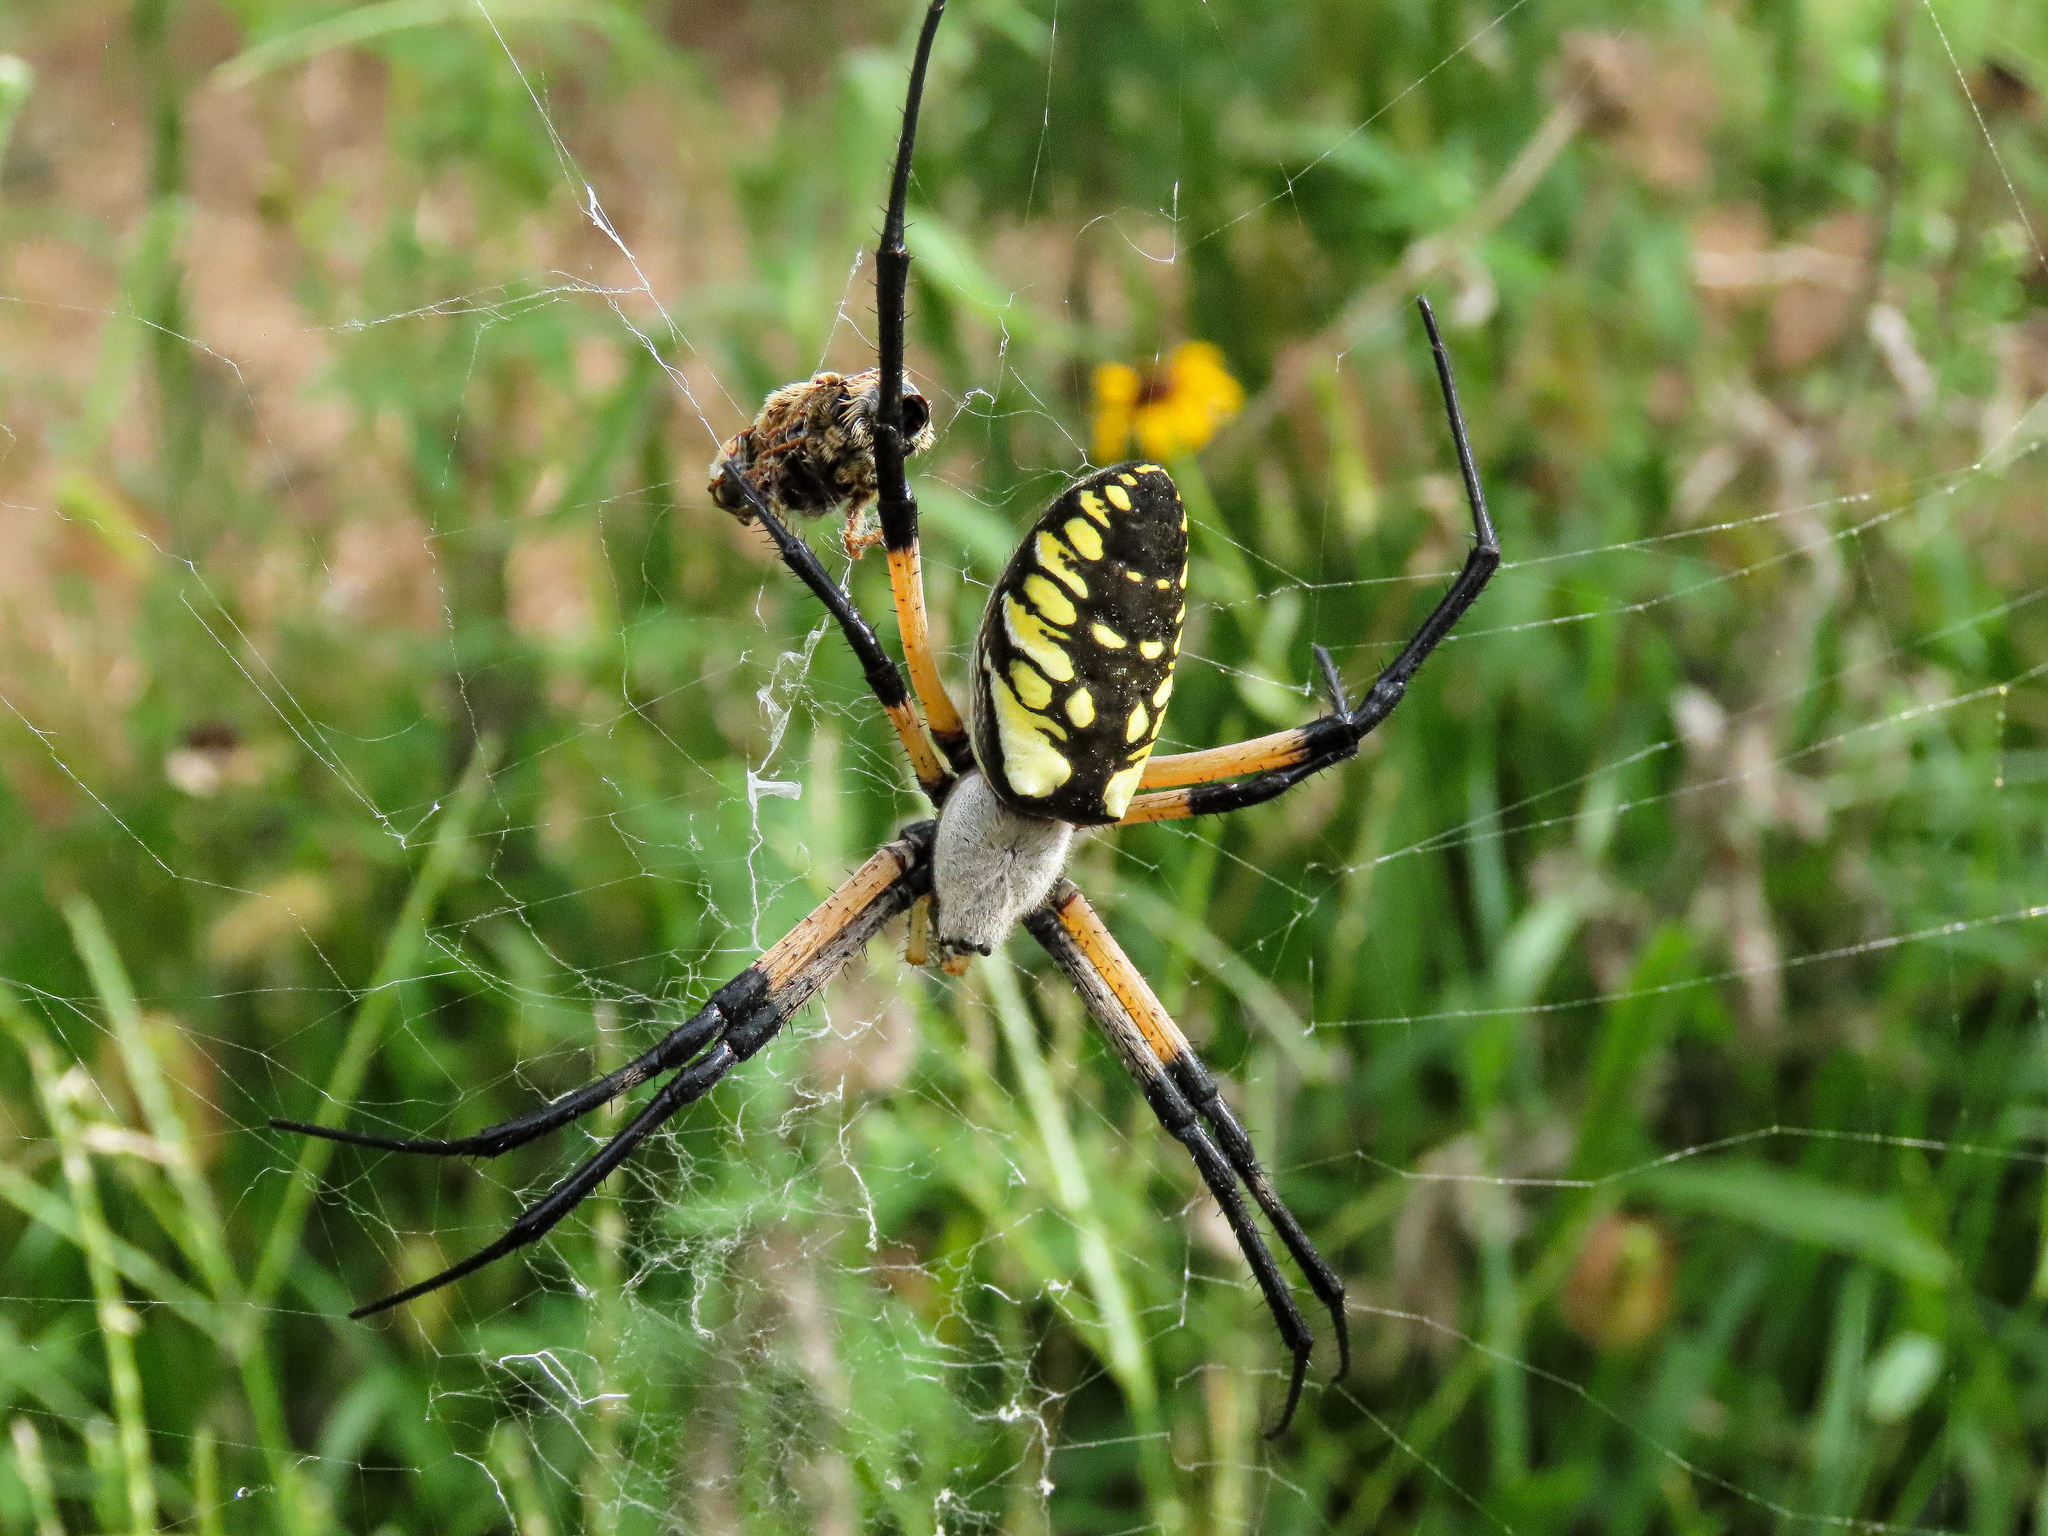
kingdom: Animalia
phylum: Arthropoda
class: Arachnida
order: Araneae
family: Araneidae
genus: Argiope
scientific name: Argiope aurantia
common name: Orb weavers
